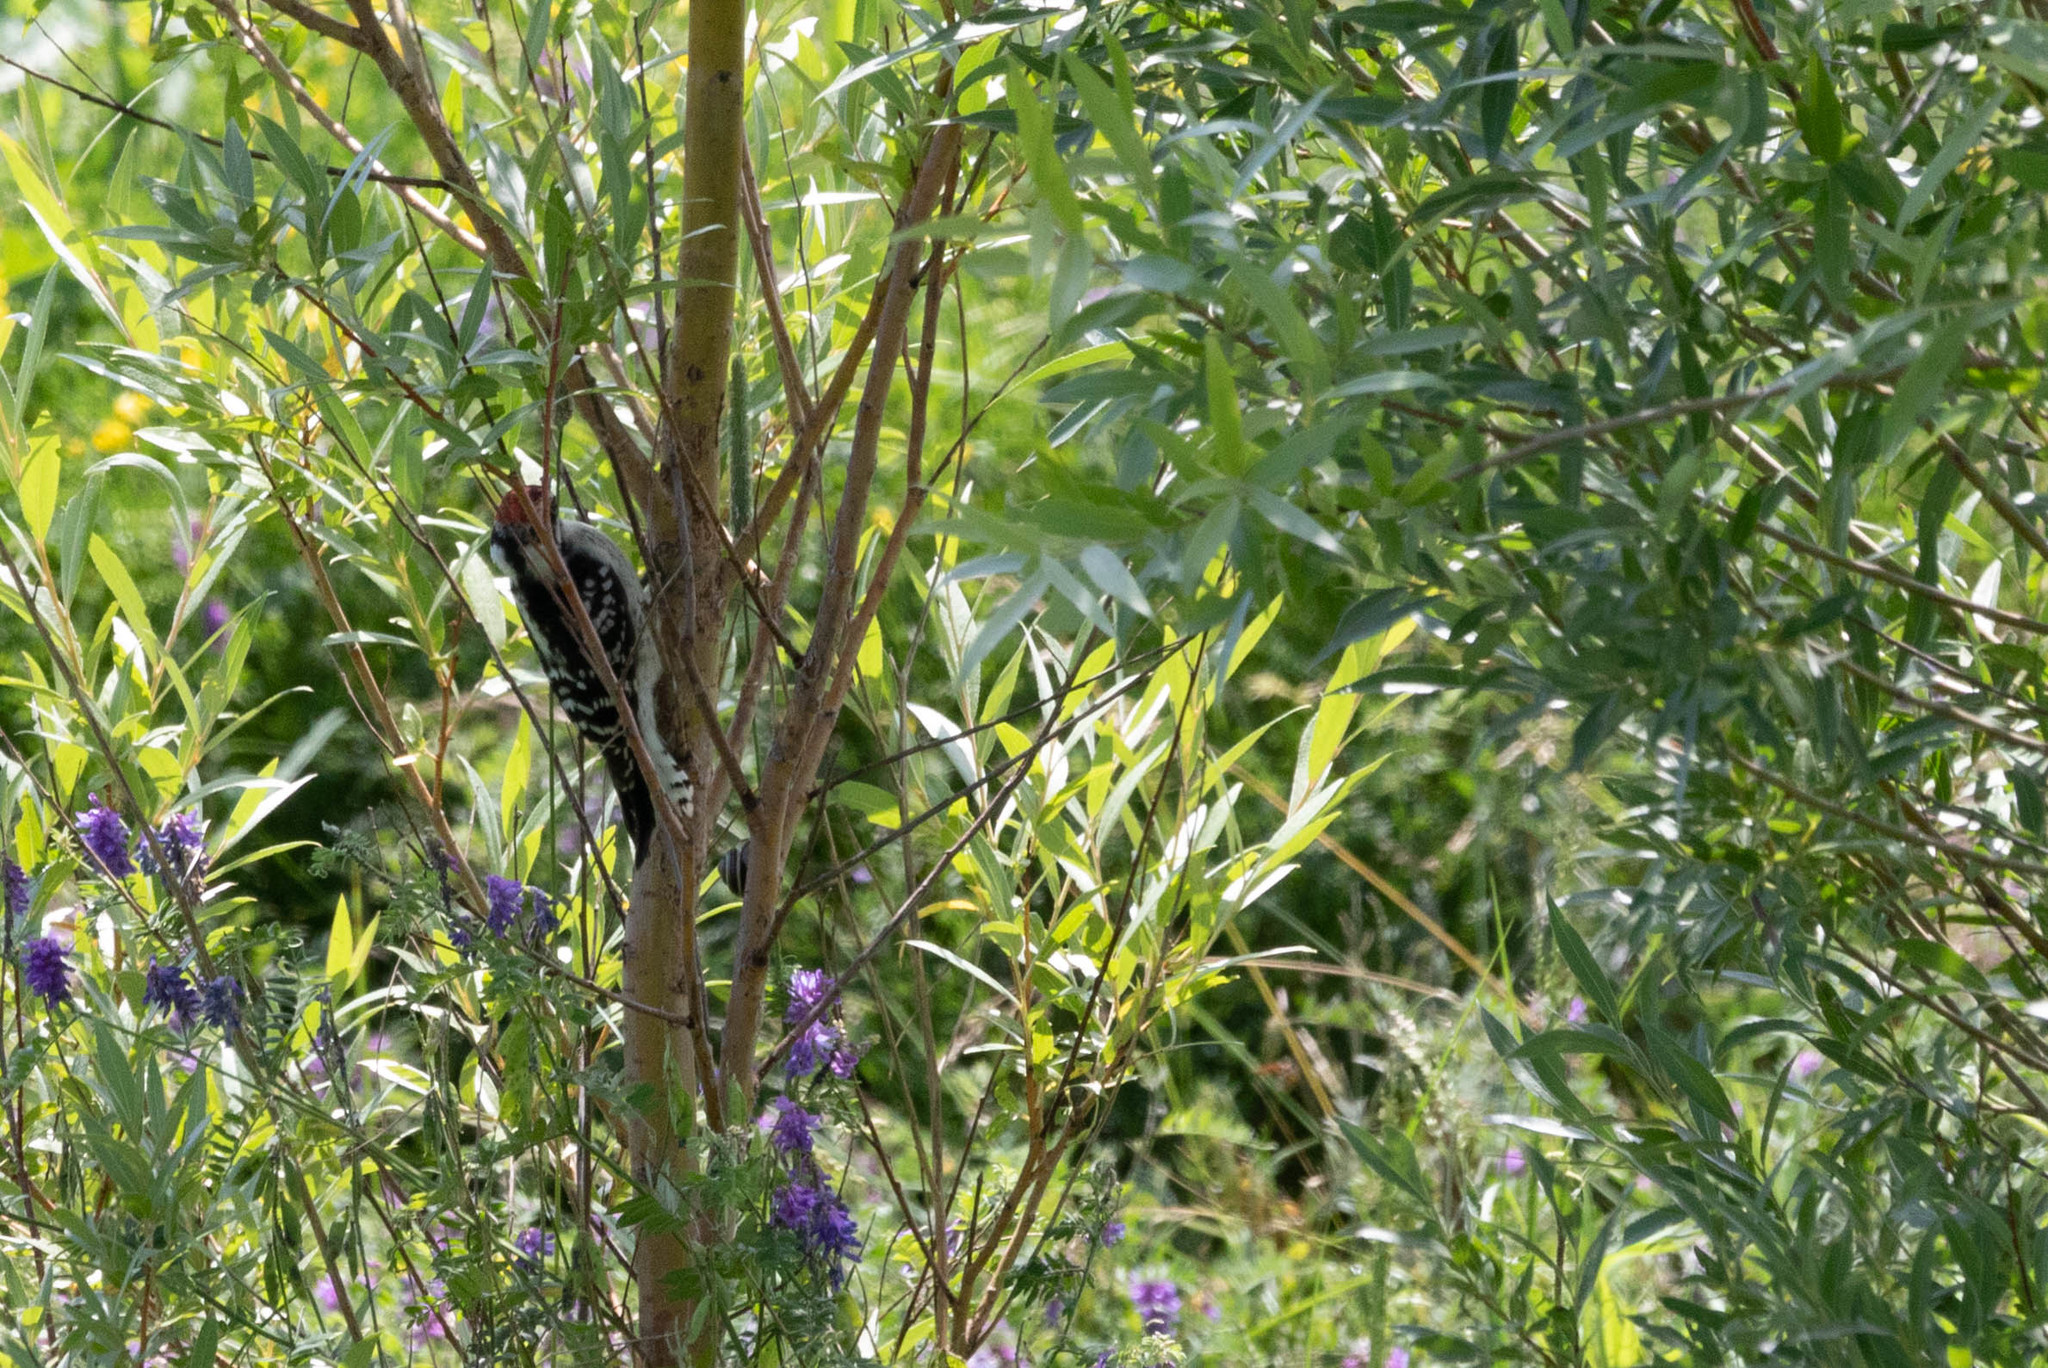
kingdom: Animalia
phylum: Chordata
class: Aves
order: Piciformes
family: Picidae
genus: Dryobates
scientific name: Dryobates pubescens
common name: Downy woodpecker
